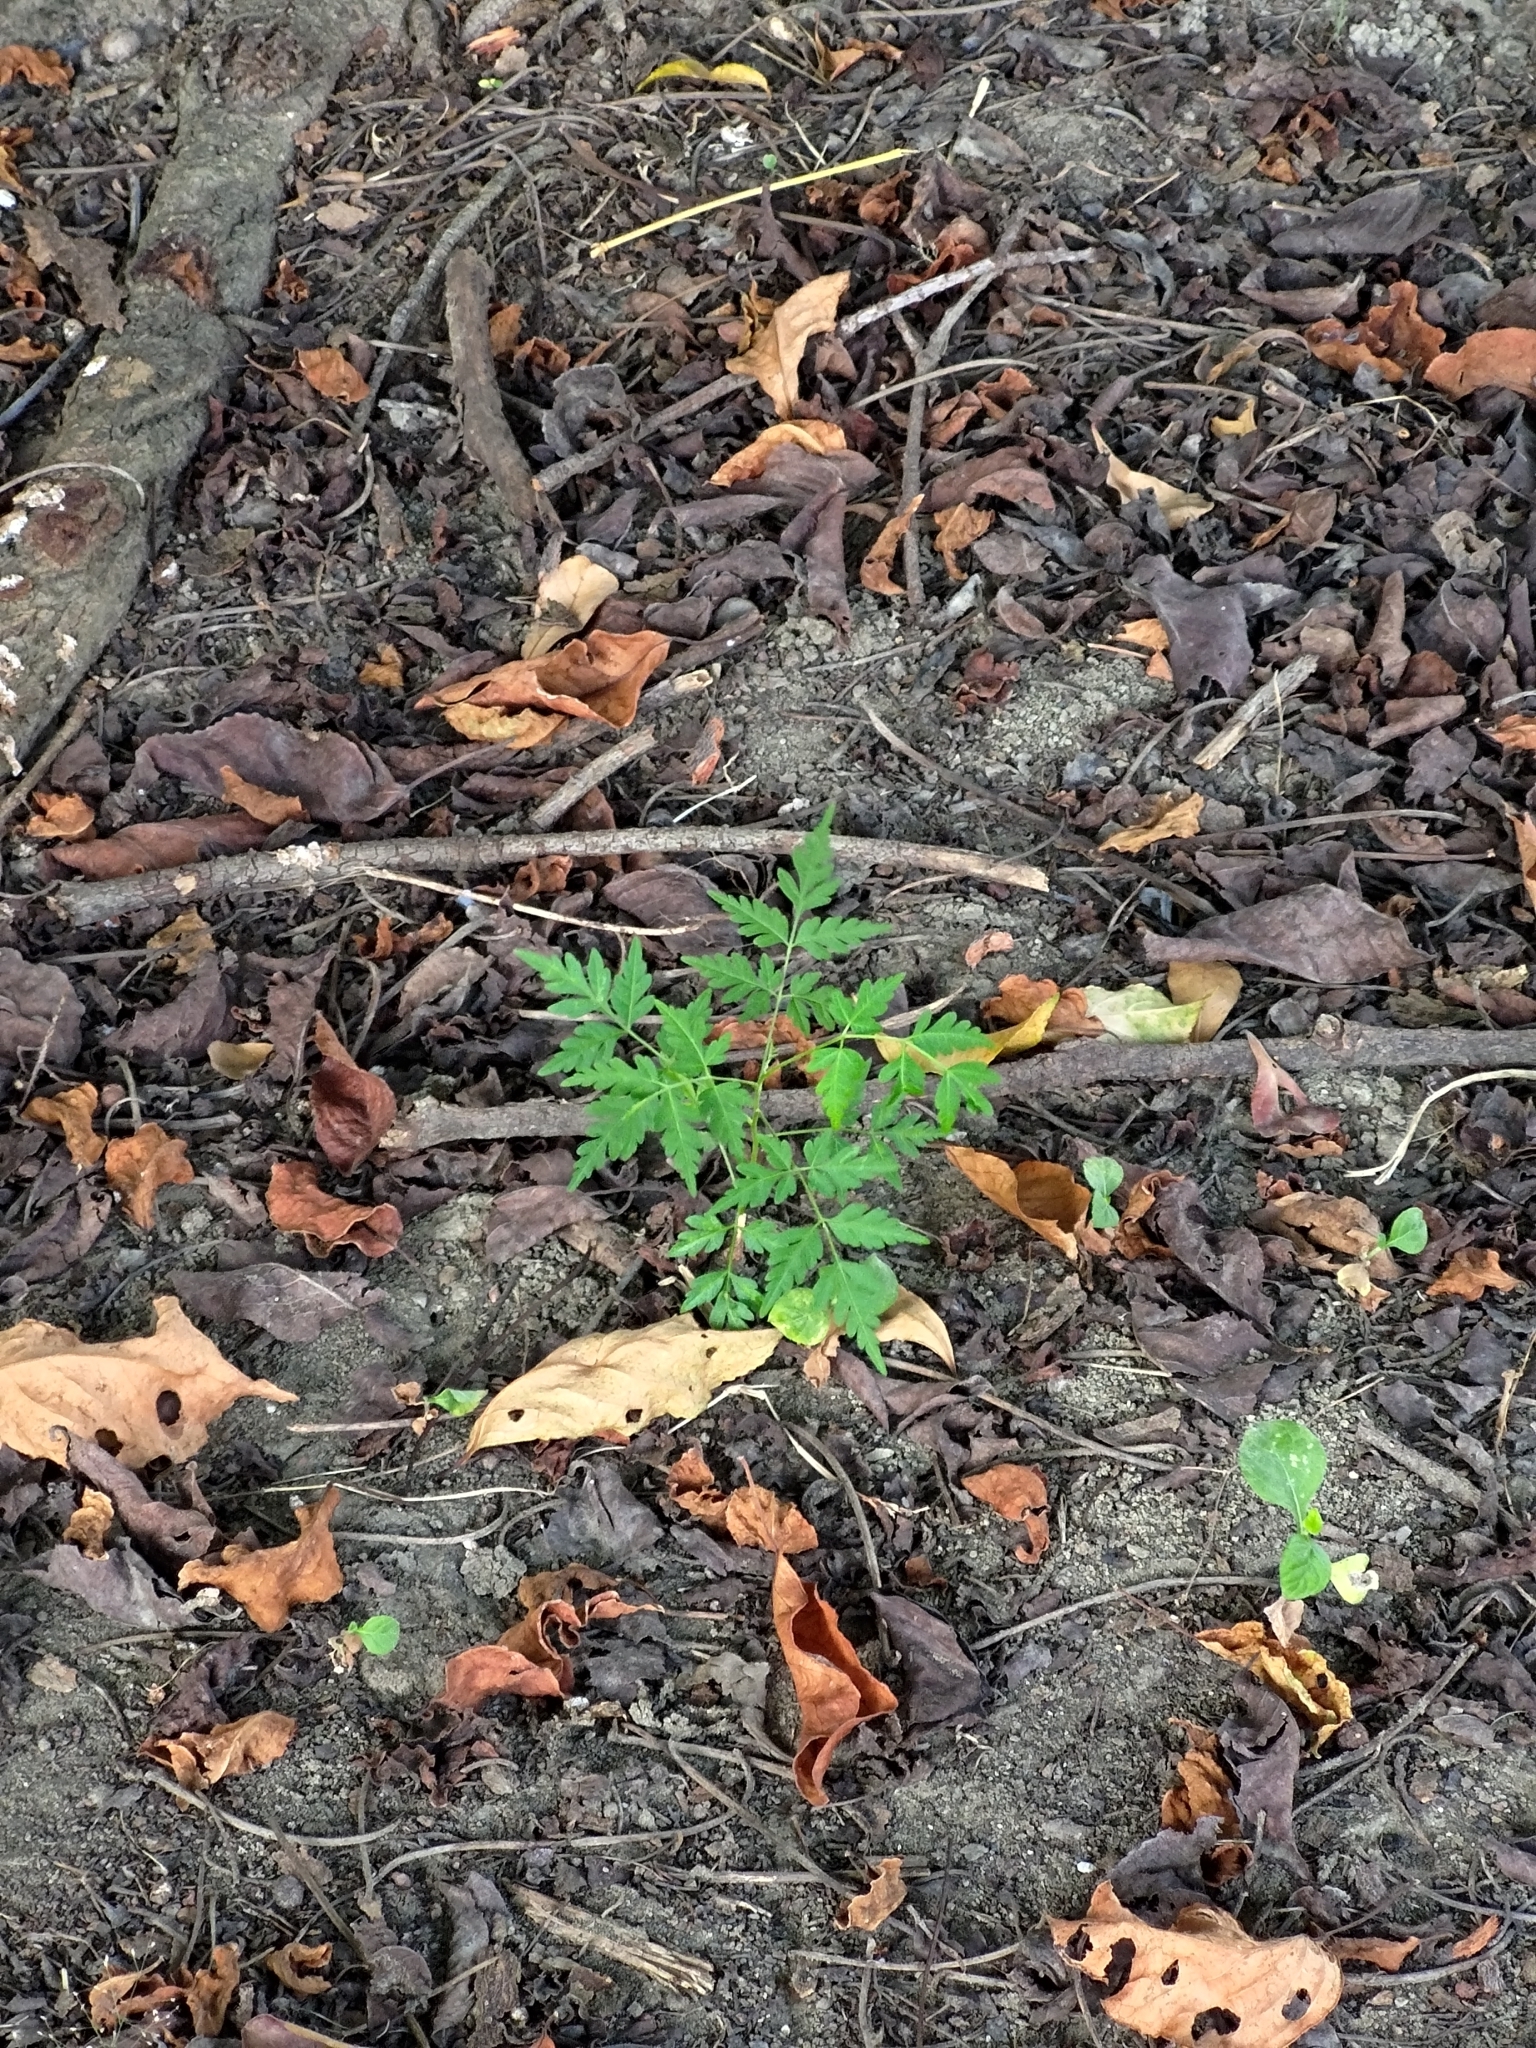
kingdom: Plantae
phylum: Tracheophyta
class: Magnoliopsida
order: Sapindales
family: Meliaceae
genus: Melia
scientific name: Melia azedarach
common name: Chinaberrytree
